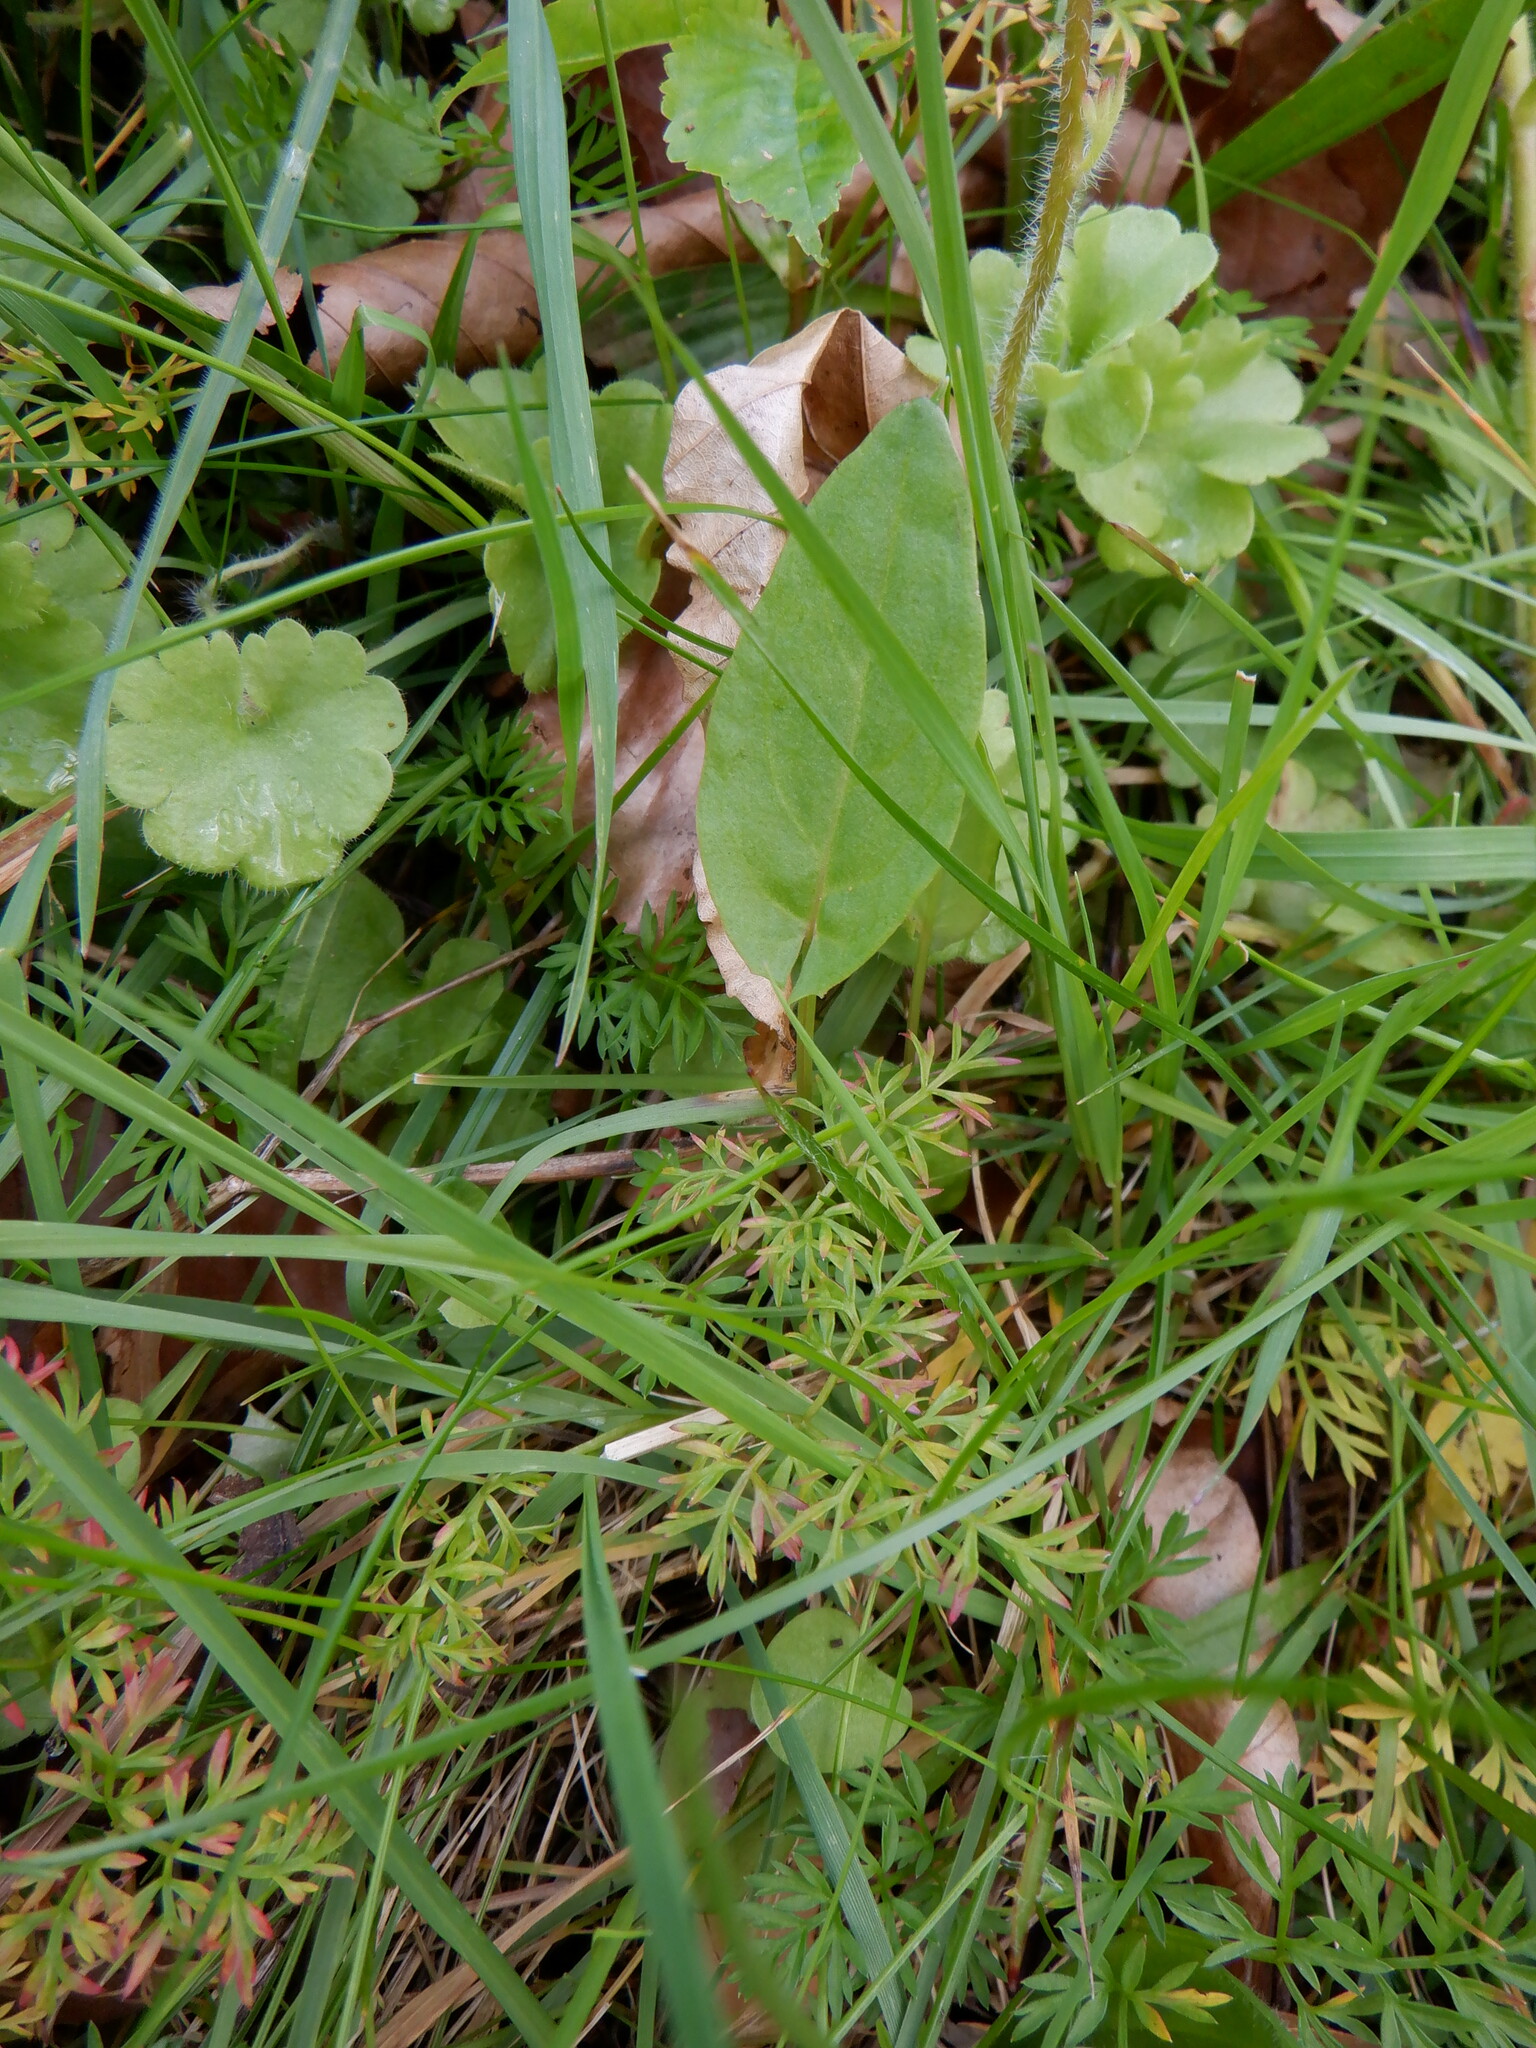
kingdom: Plantae
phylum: Tracheophyta
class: Magnoliopsida
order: Caryophyllales
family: Polygonaceae
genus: Rumex
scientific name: Rumex acetosa
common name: Garden sorrel
